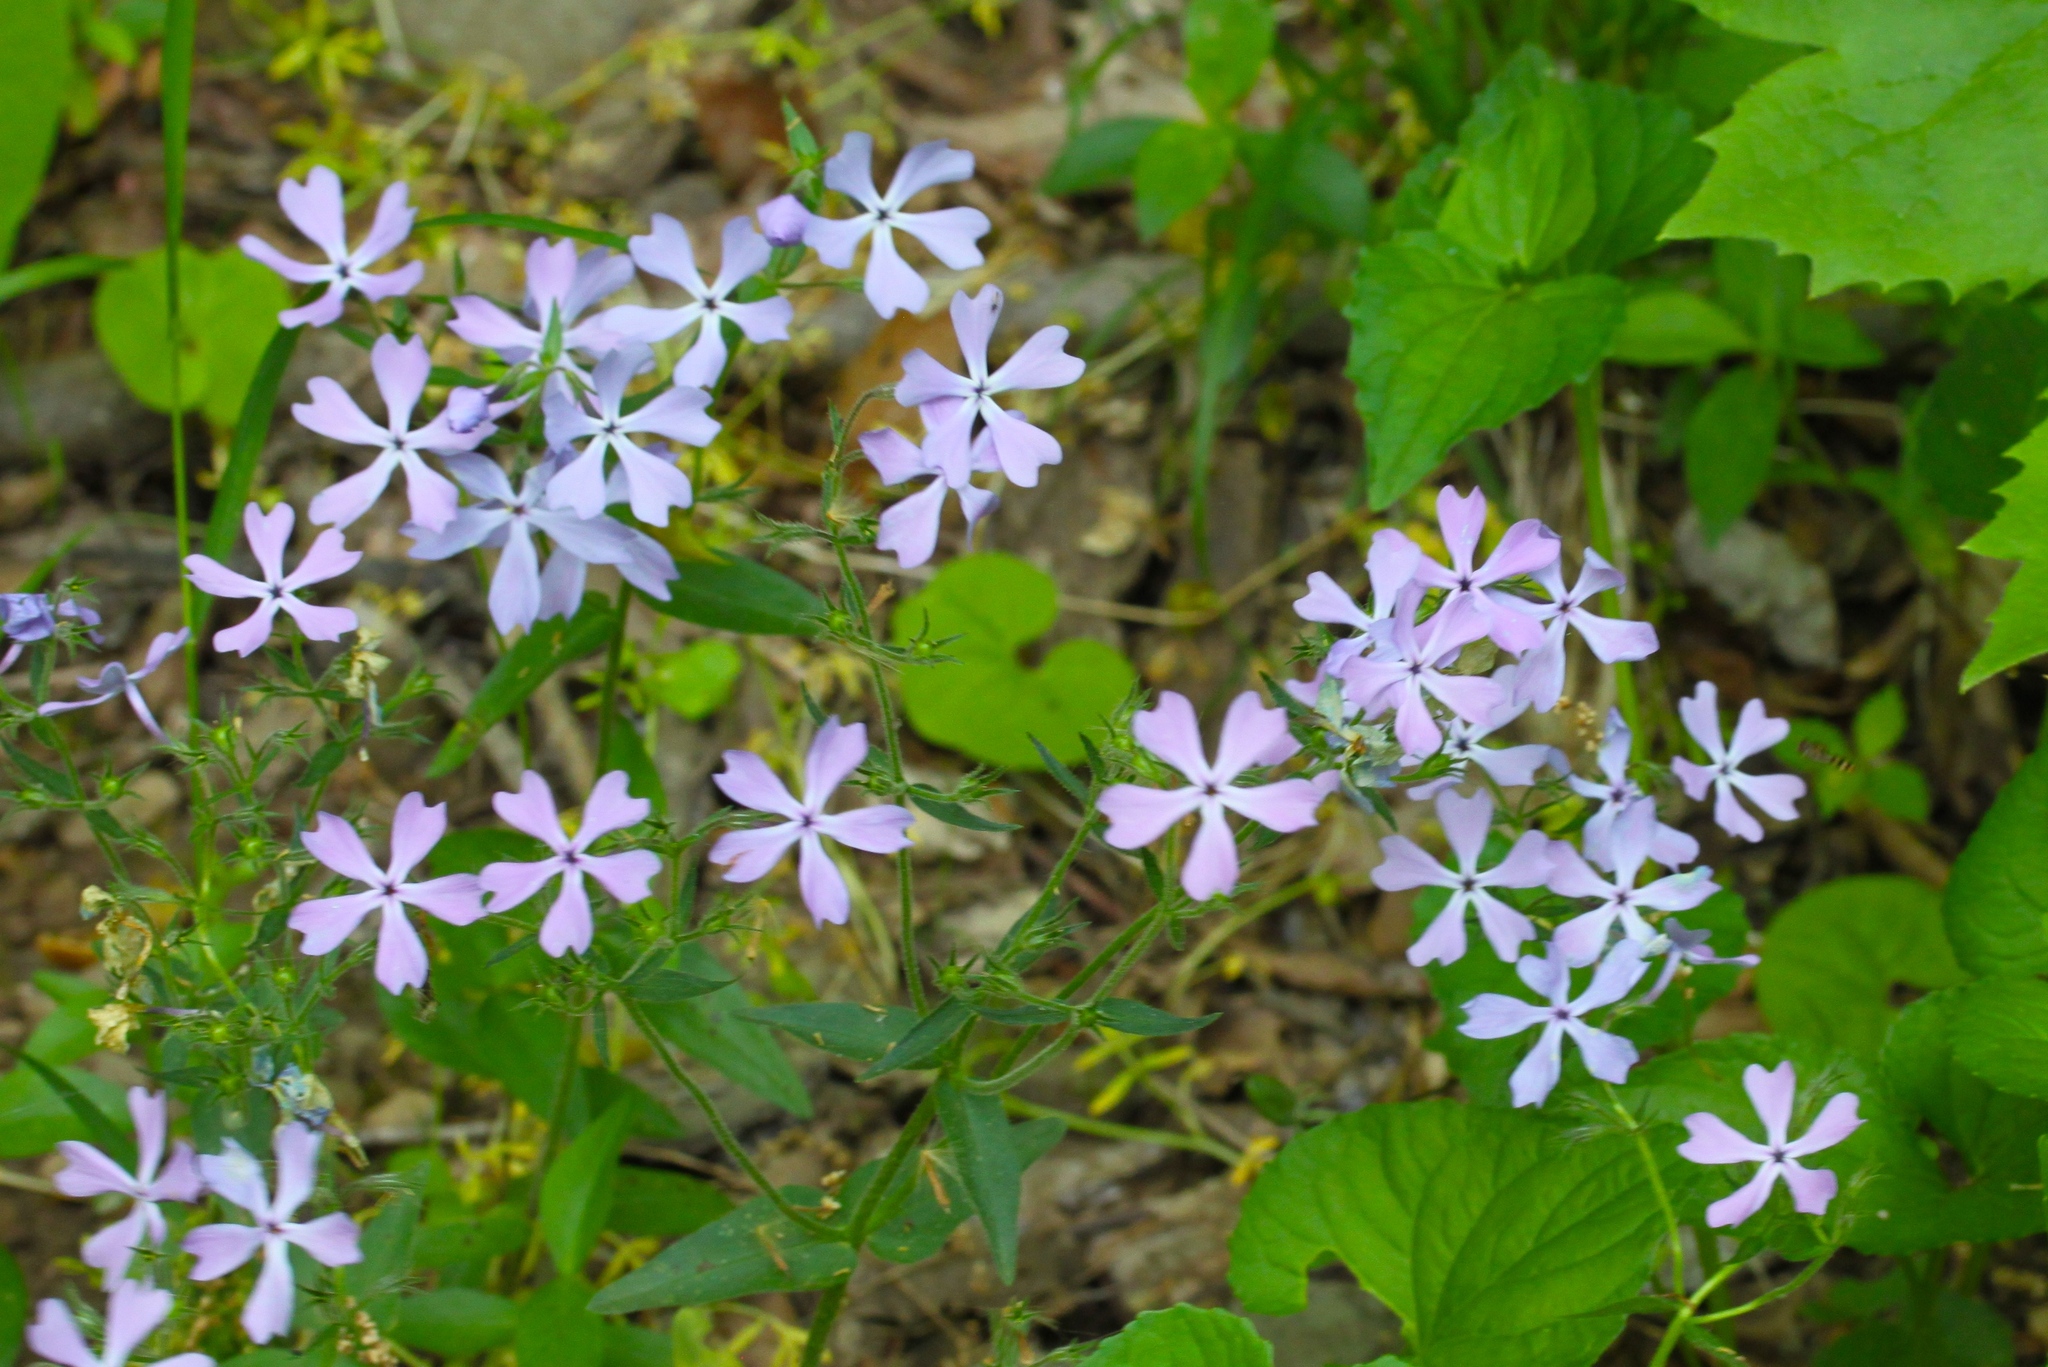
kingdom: Plantae
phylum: Tracheophyta
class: Magnoliopsida
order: Ericales
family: Polemoniaceae
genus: Phlox
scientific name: Phlox divaricata
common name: Blue phlox
